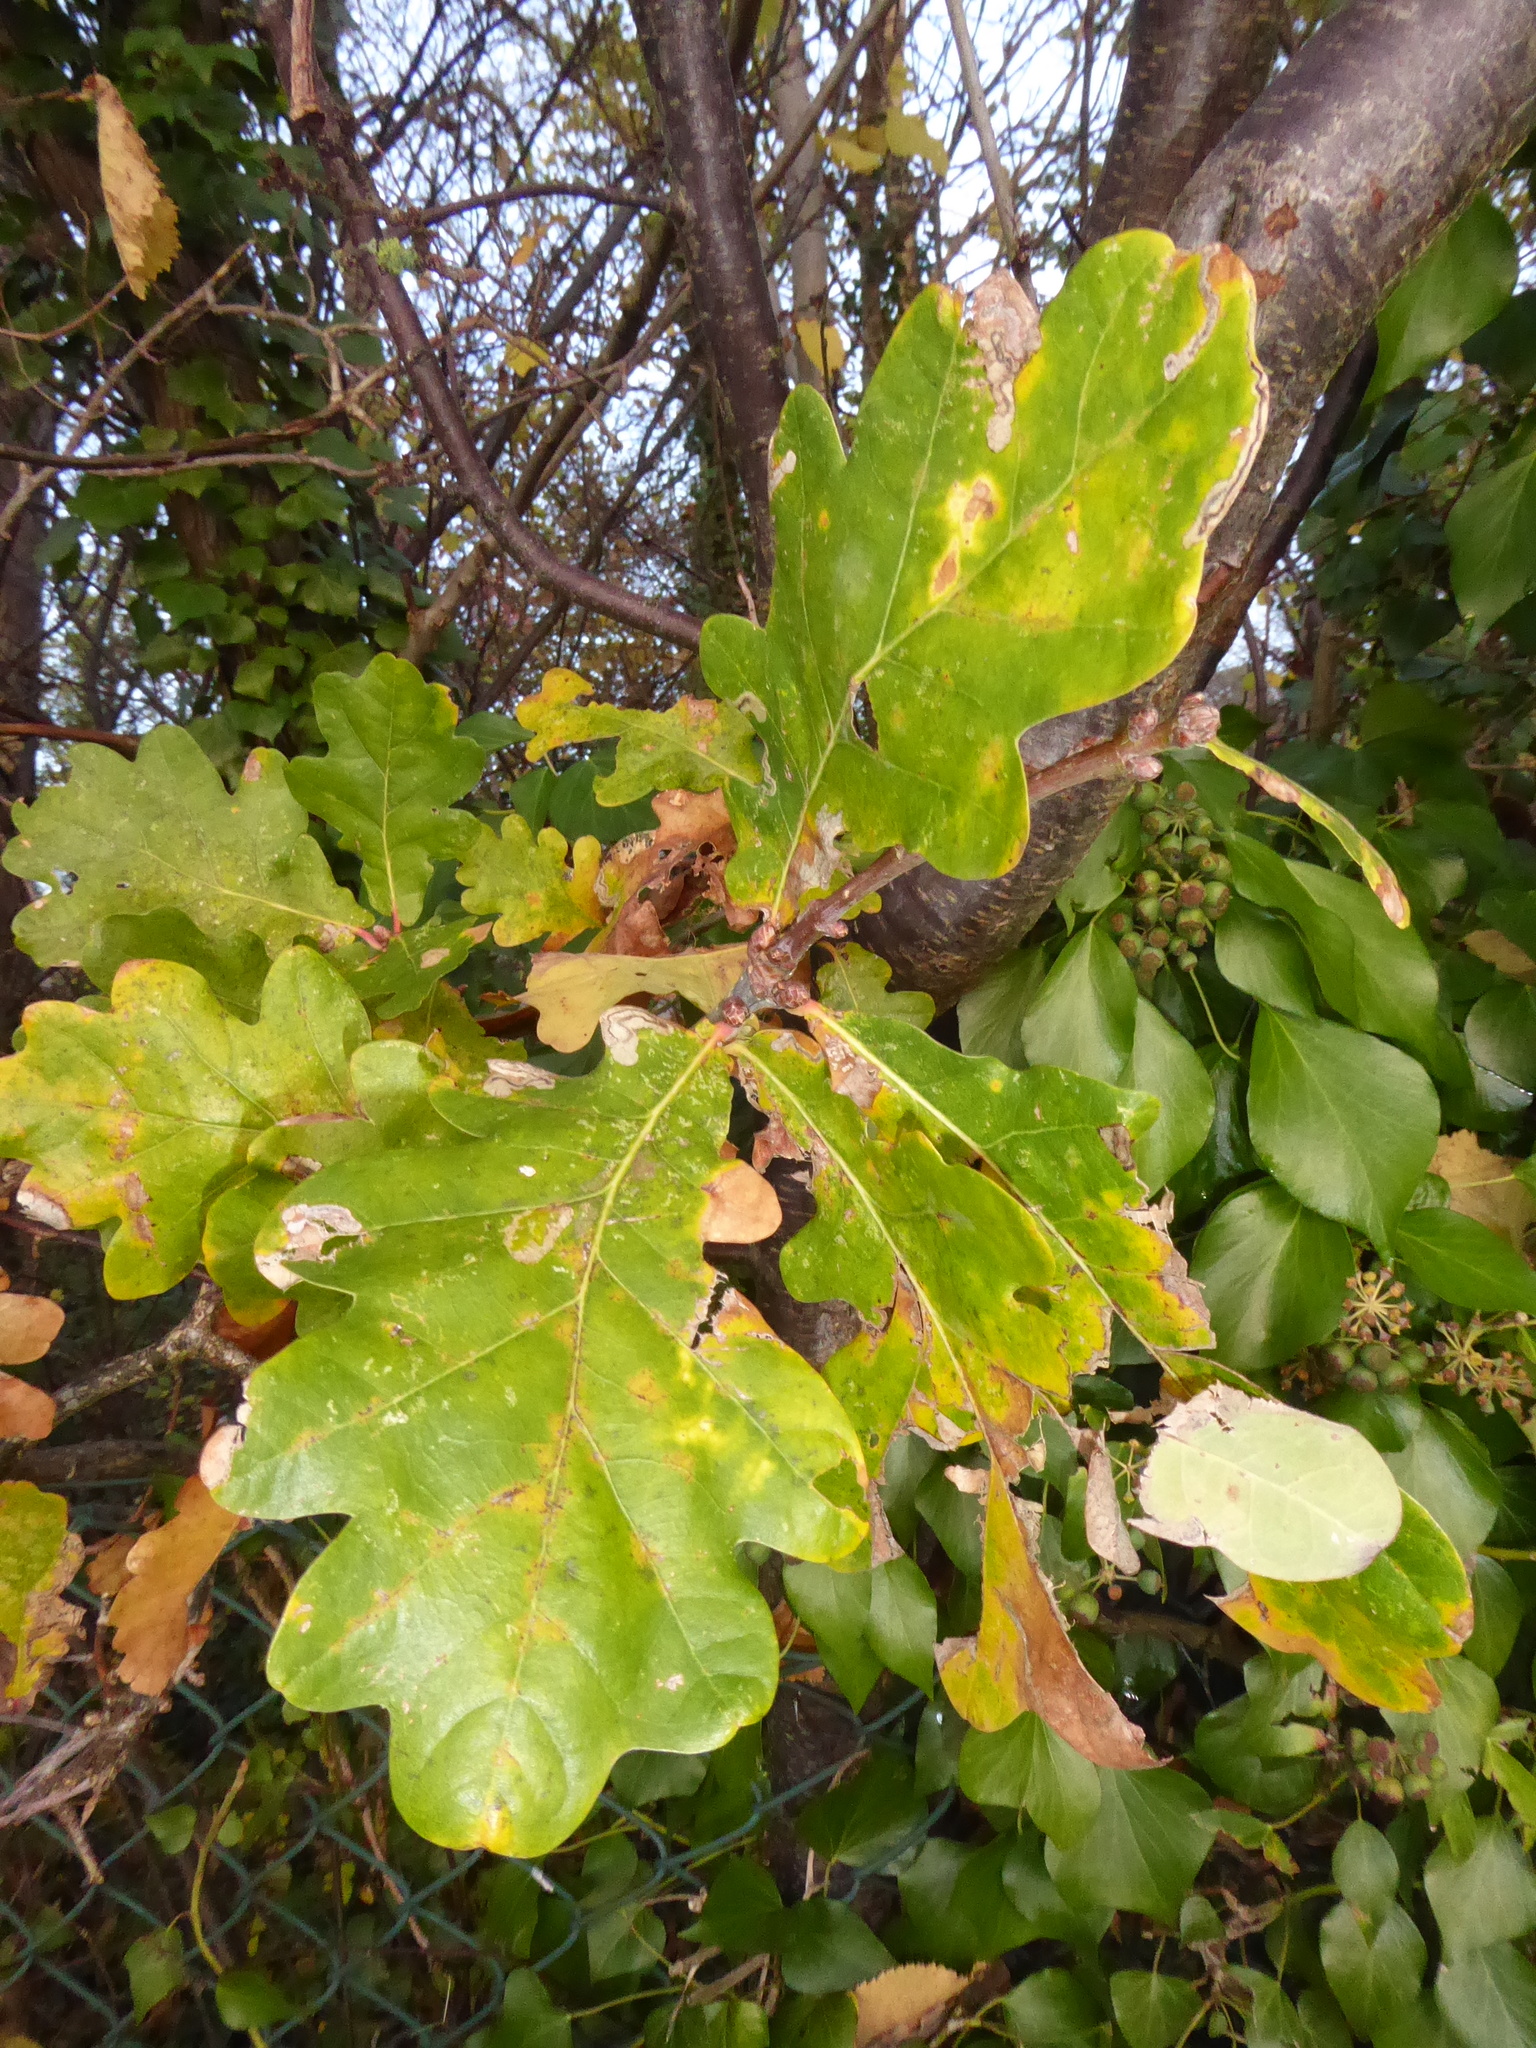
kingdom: Plantae
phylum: Tracheophyta
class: Magnoliopsida
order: Fagales
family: Fagaceae
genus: Quercus
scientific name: Quercus robur
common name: Pedunculate oak
